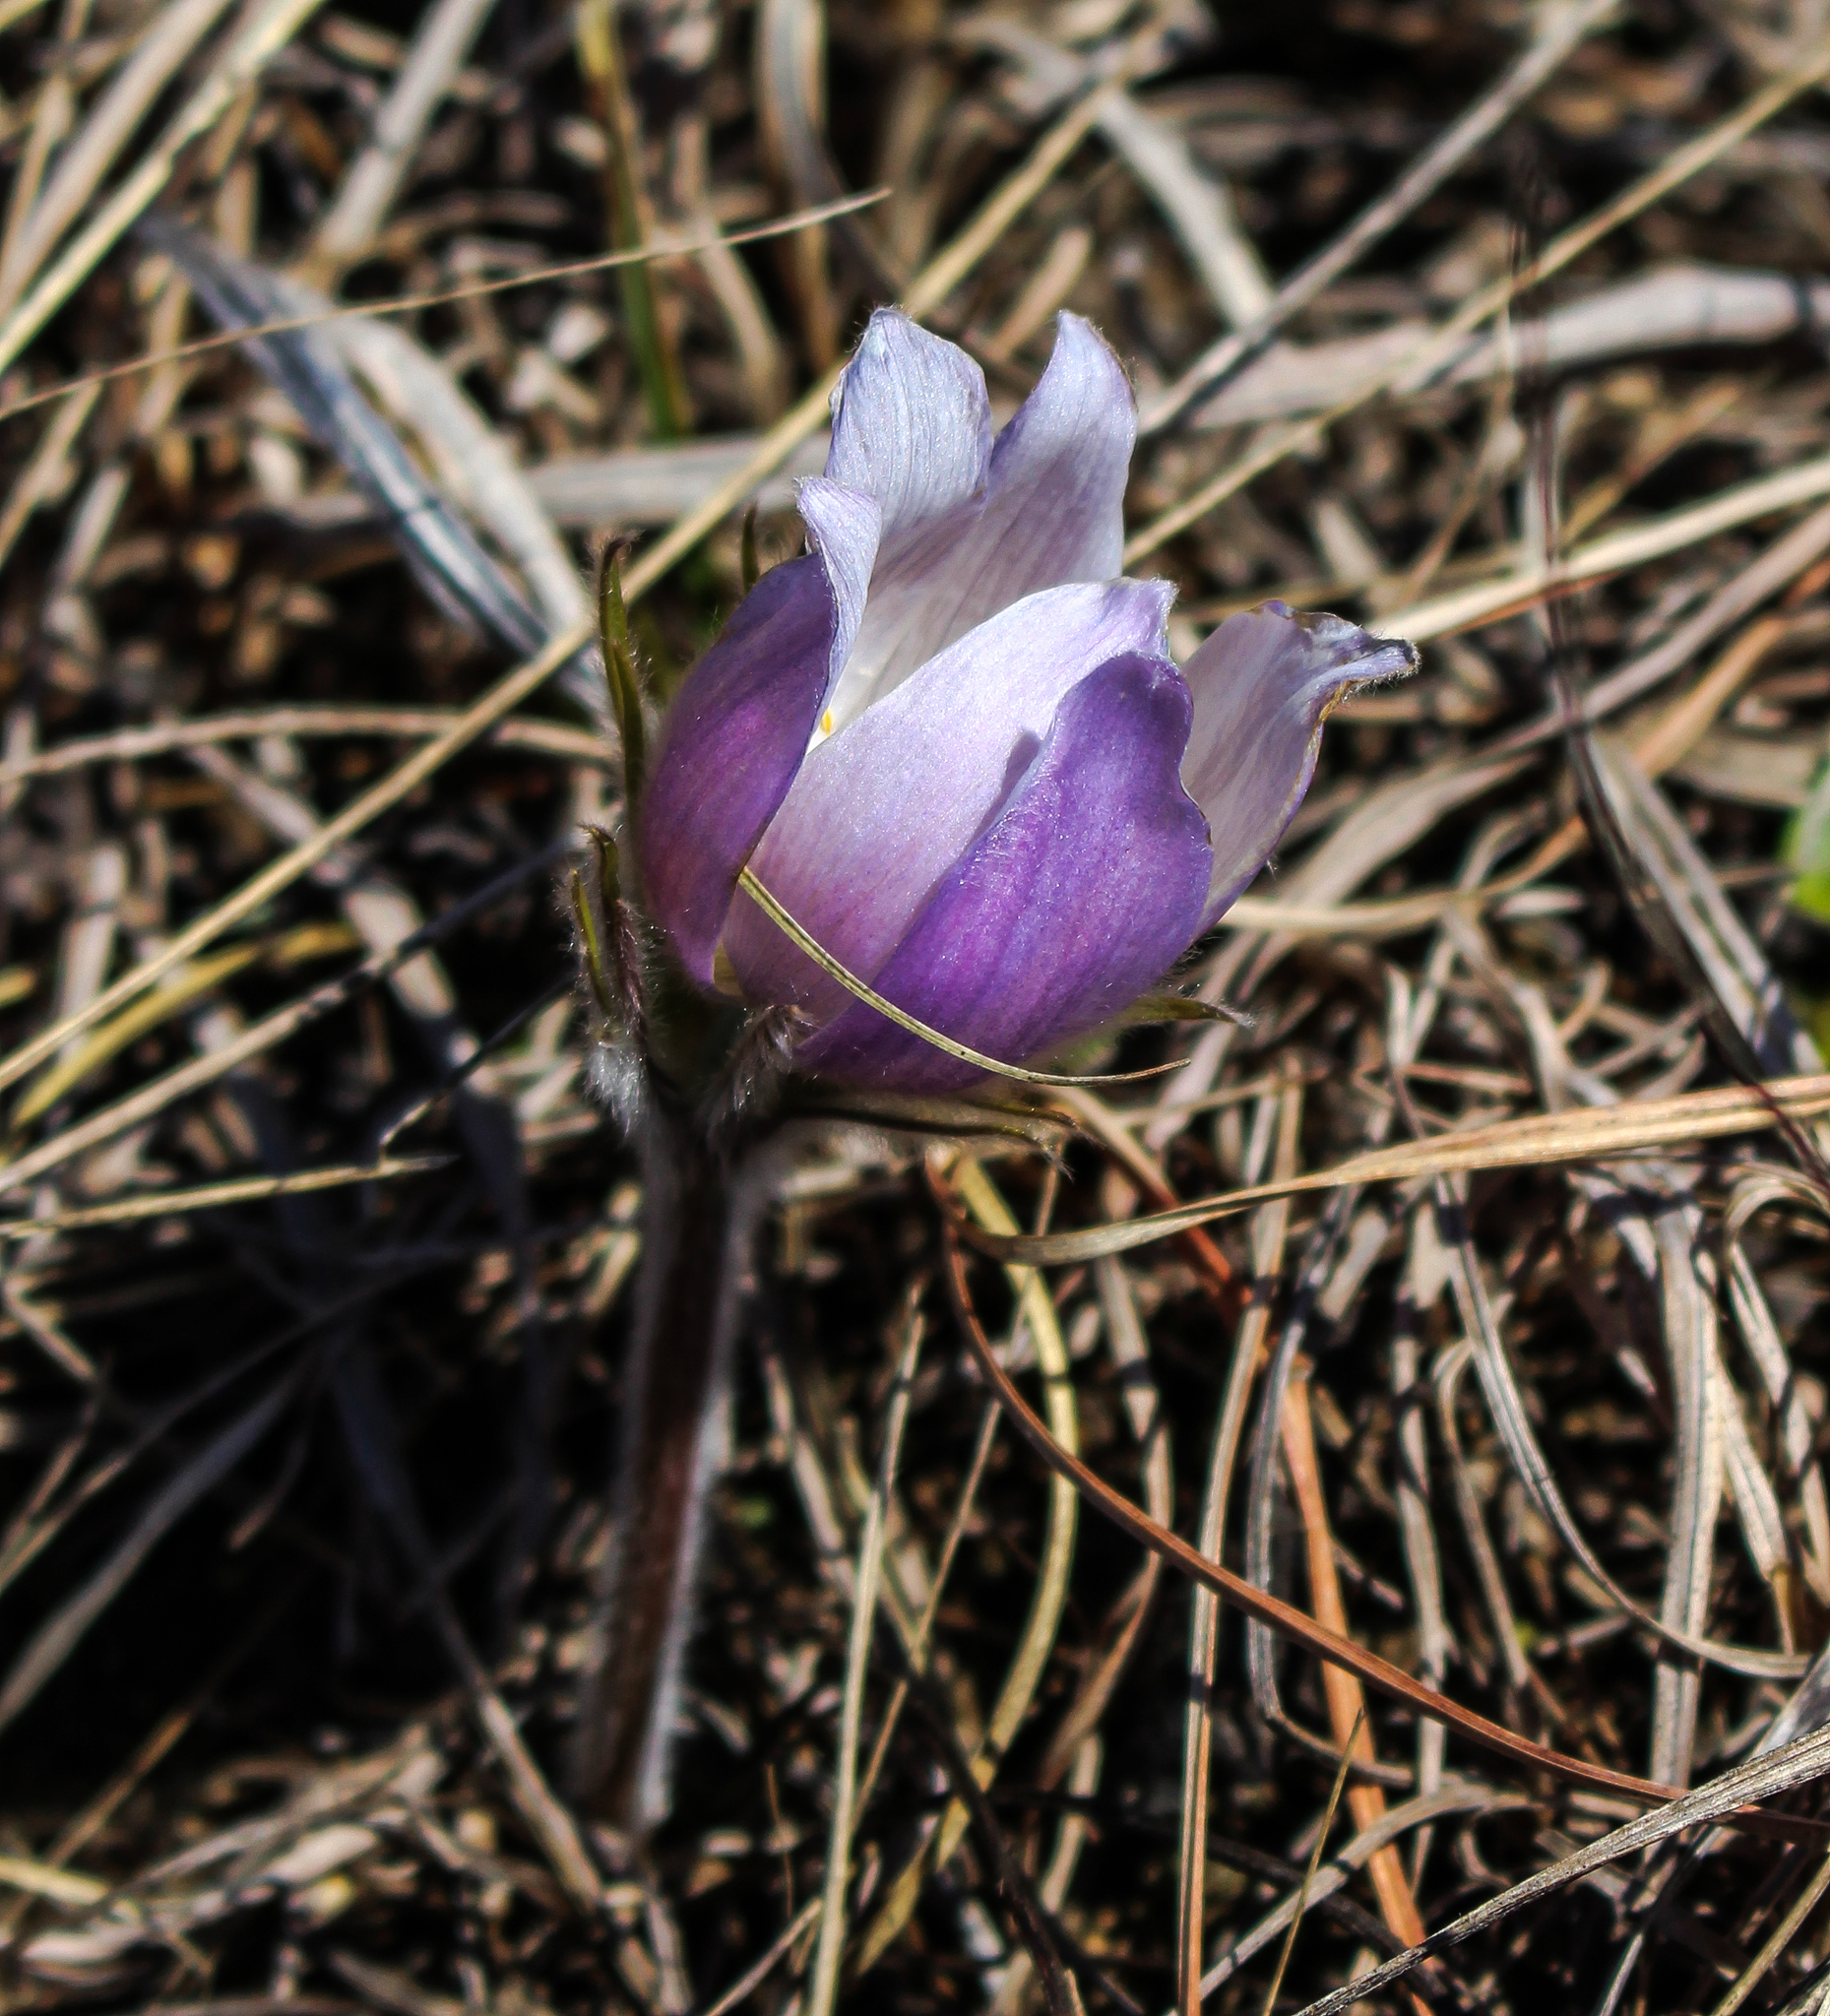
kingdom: Plantae
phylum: Tracheophyta
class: Magnoliopsida
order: Ranunculales
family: Ranunculaceae
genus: Pulsatilla
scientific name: Pulsatilla nuttalliana
